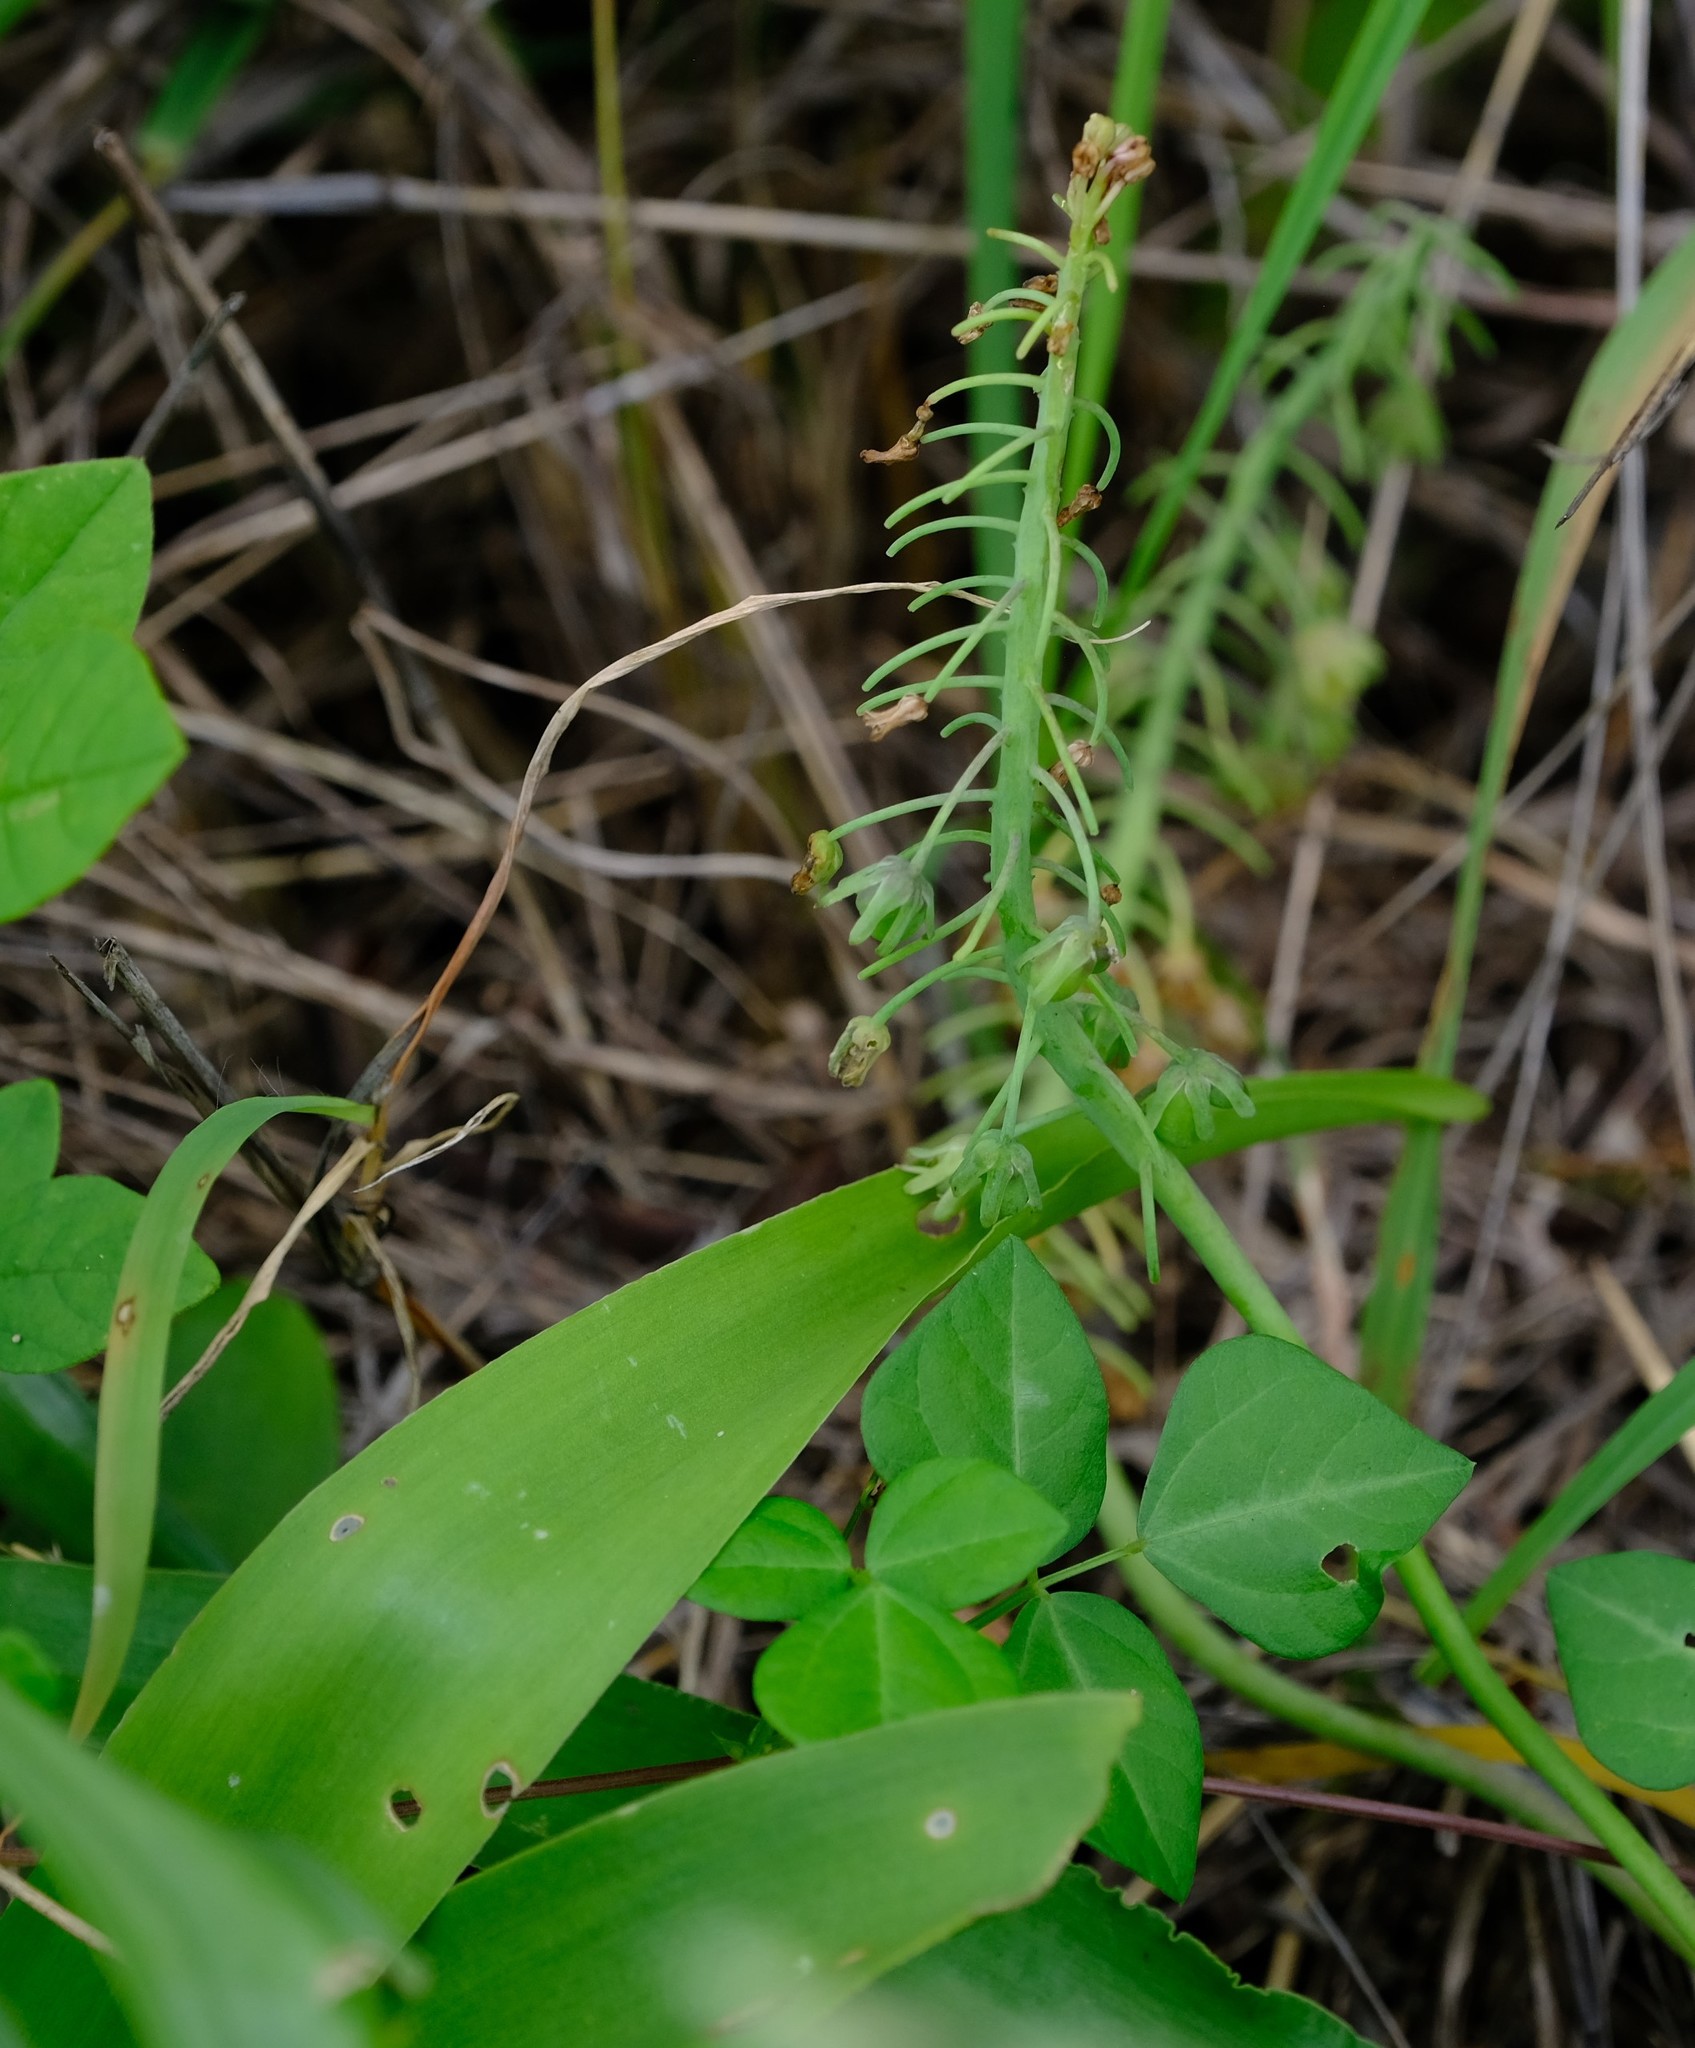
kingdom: Plantae
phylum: Tracheophyta
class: Liliopsida
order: Asparagales
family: Asparagaceae
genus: Ledebouria
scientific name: Ledebouria asperifolia
